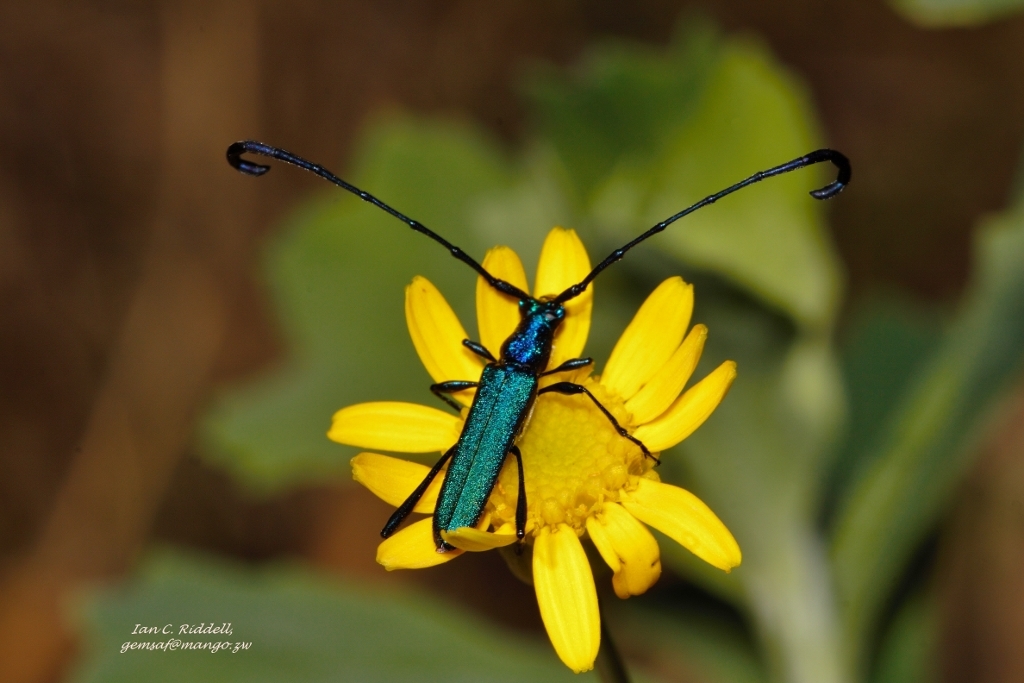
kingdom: Animalia
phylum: Arthropoda
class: Insecta
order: Coleoptera
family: Cerambycidae
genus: Hypocrites
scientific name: Hypocrites
